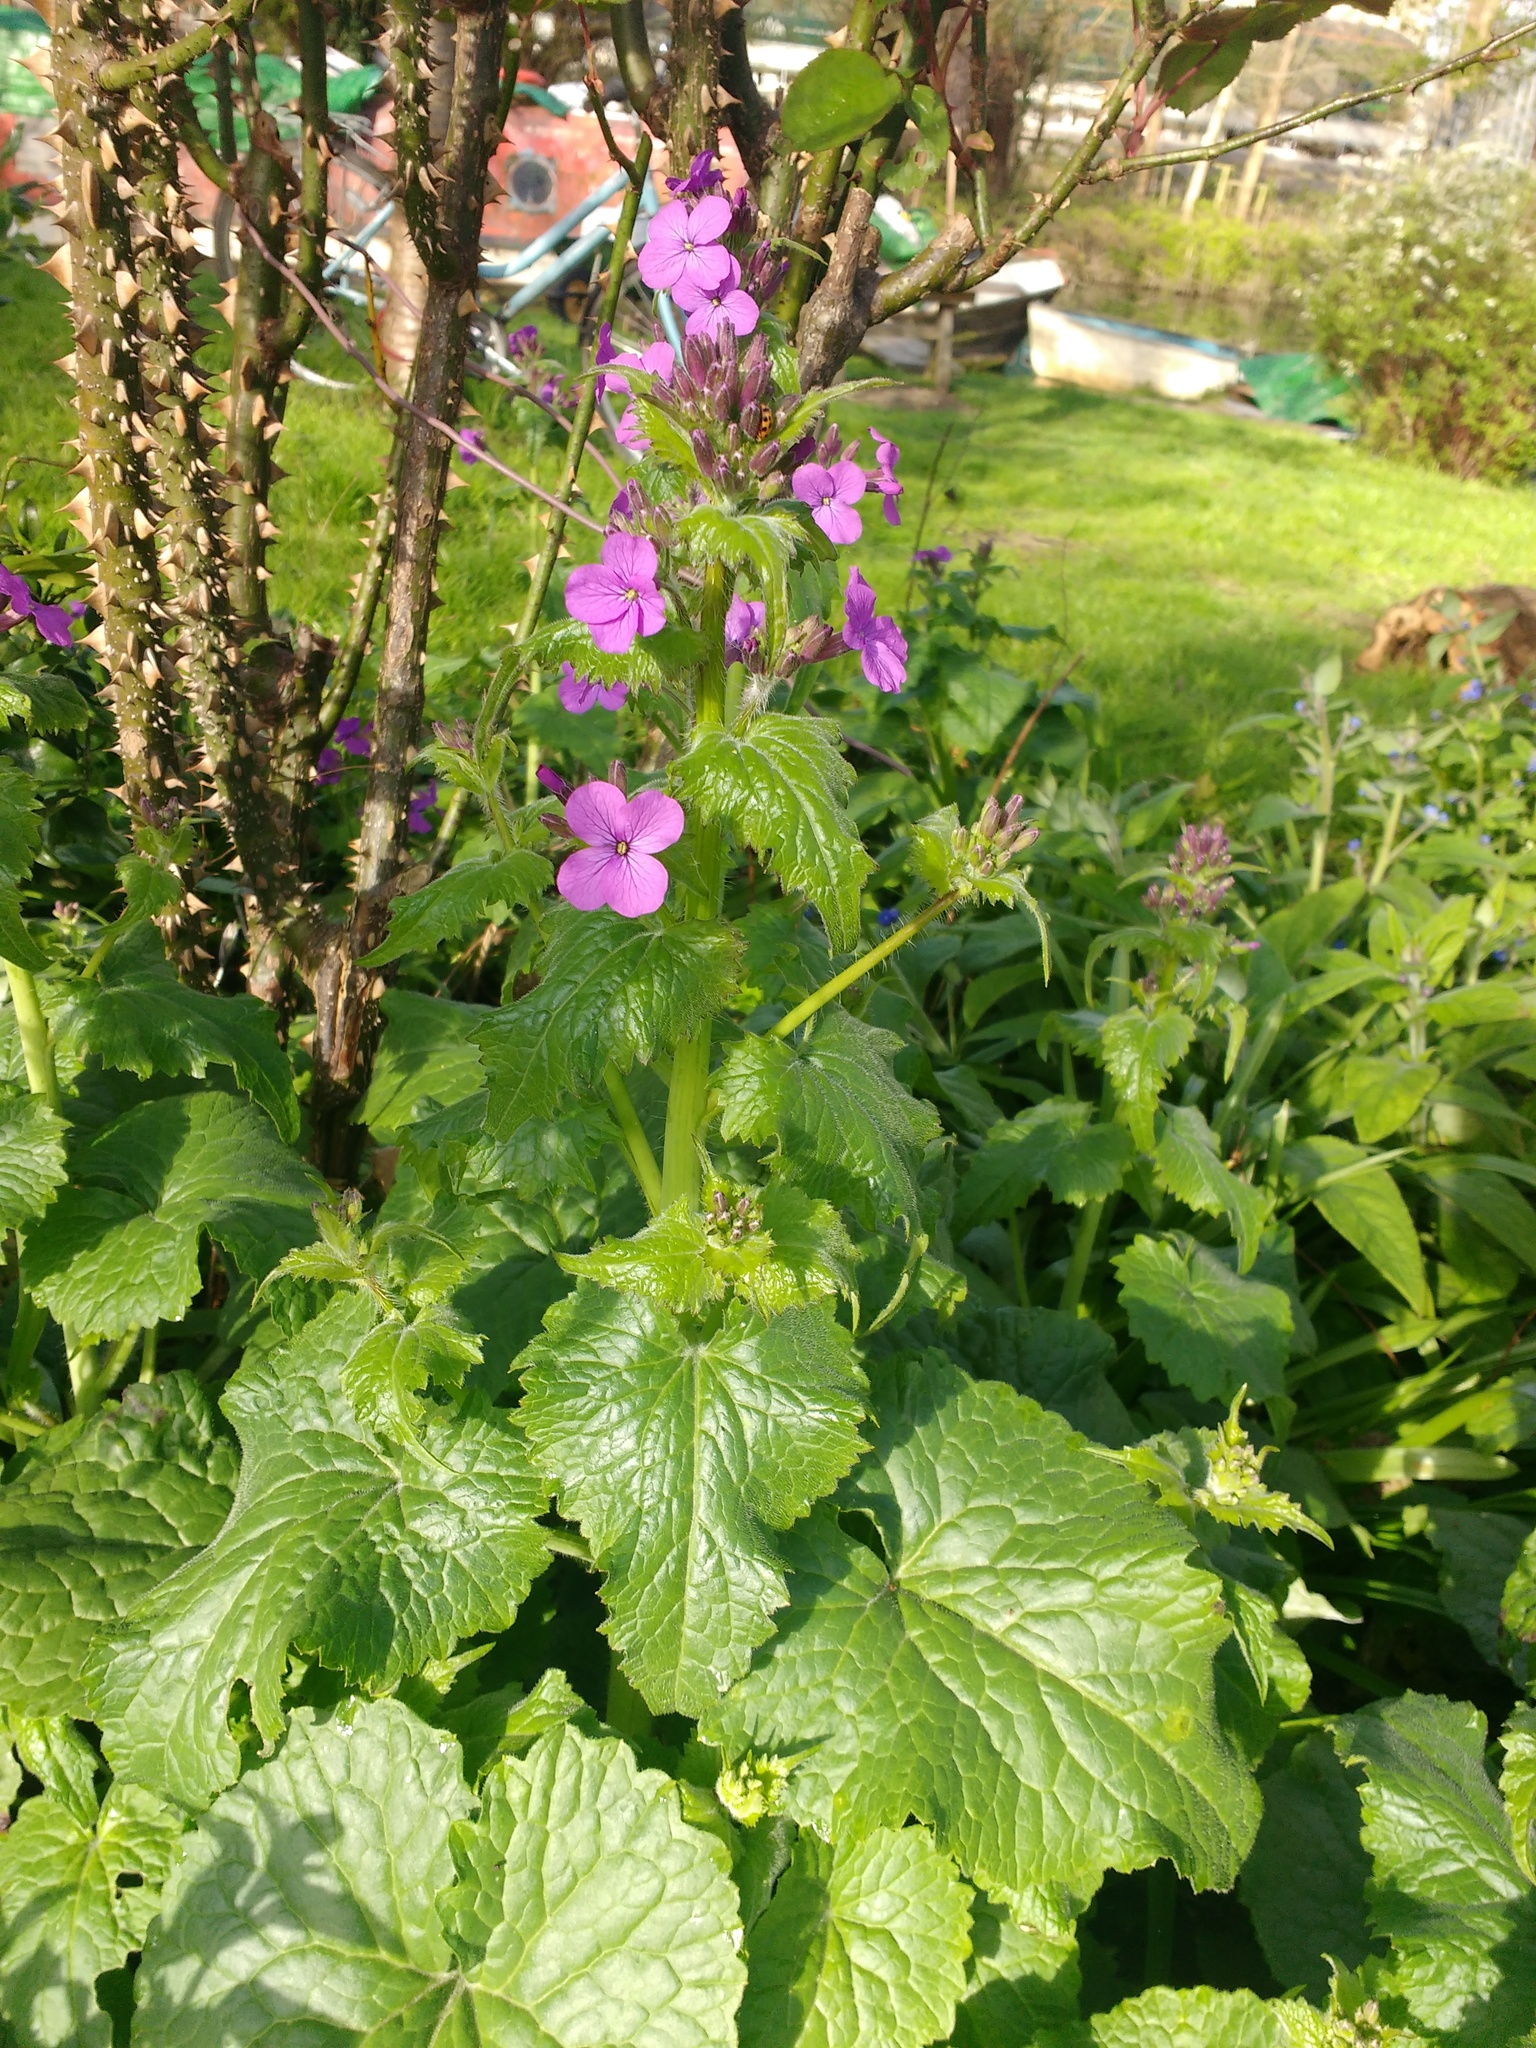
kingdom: Plantae
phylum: Tracheophyta
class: Magnoliopsida
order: Brassicales
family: Brassicaceae
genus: Lunaria
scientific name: Lunaria annua
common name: Honesty
